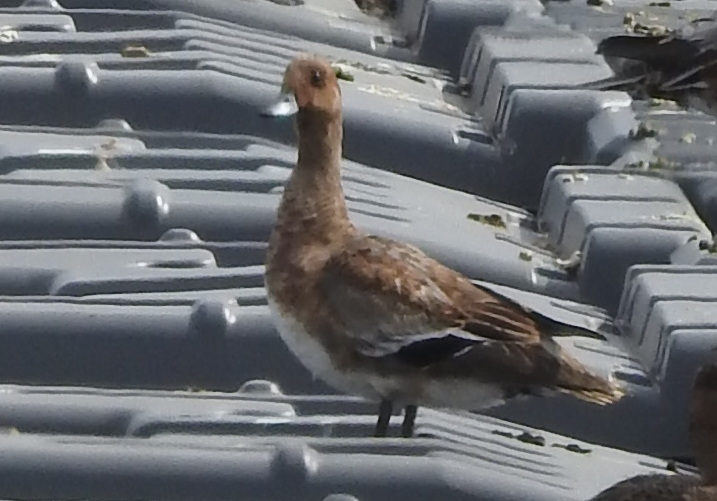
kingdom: Animalia
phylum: Chordata
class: Aves
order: Anseriformes
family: Anatidae
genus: Mareca
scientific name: Mareca penelope
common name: Eurasian wigeon
